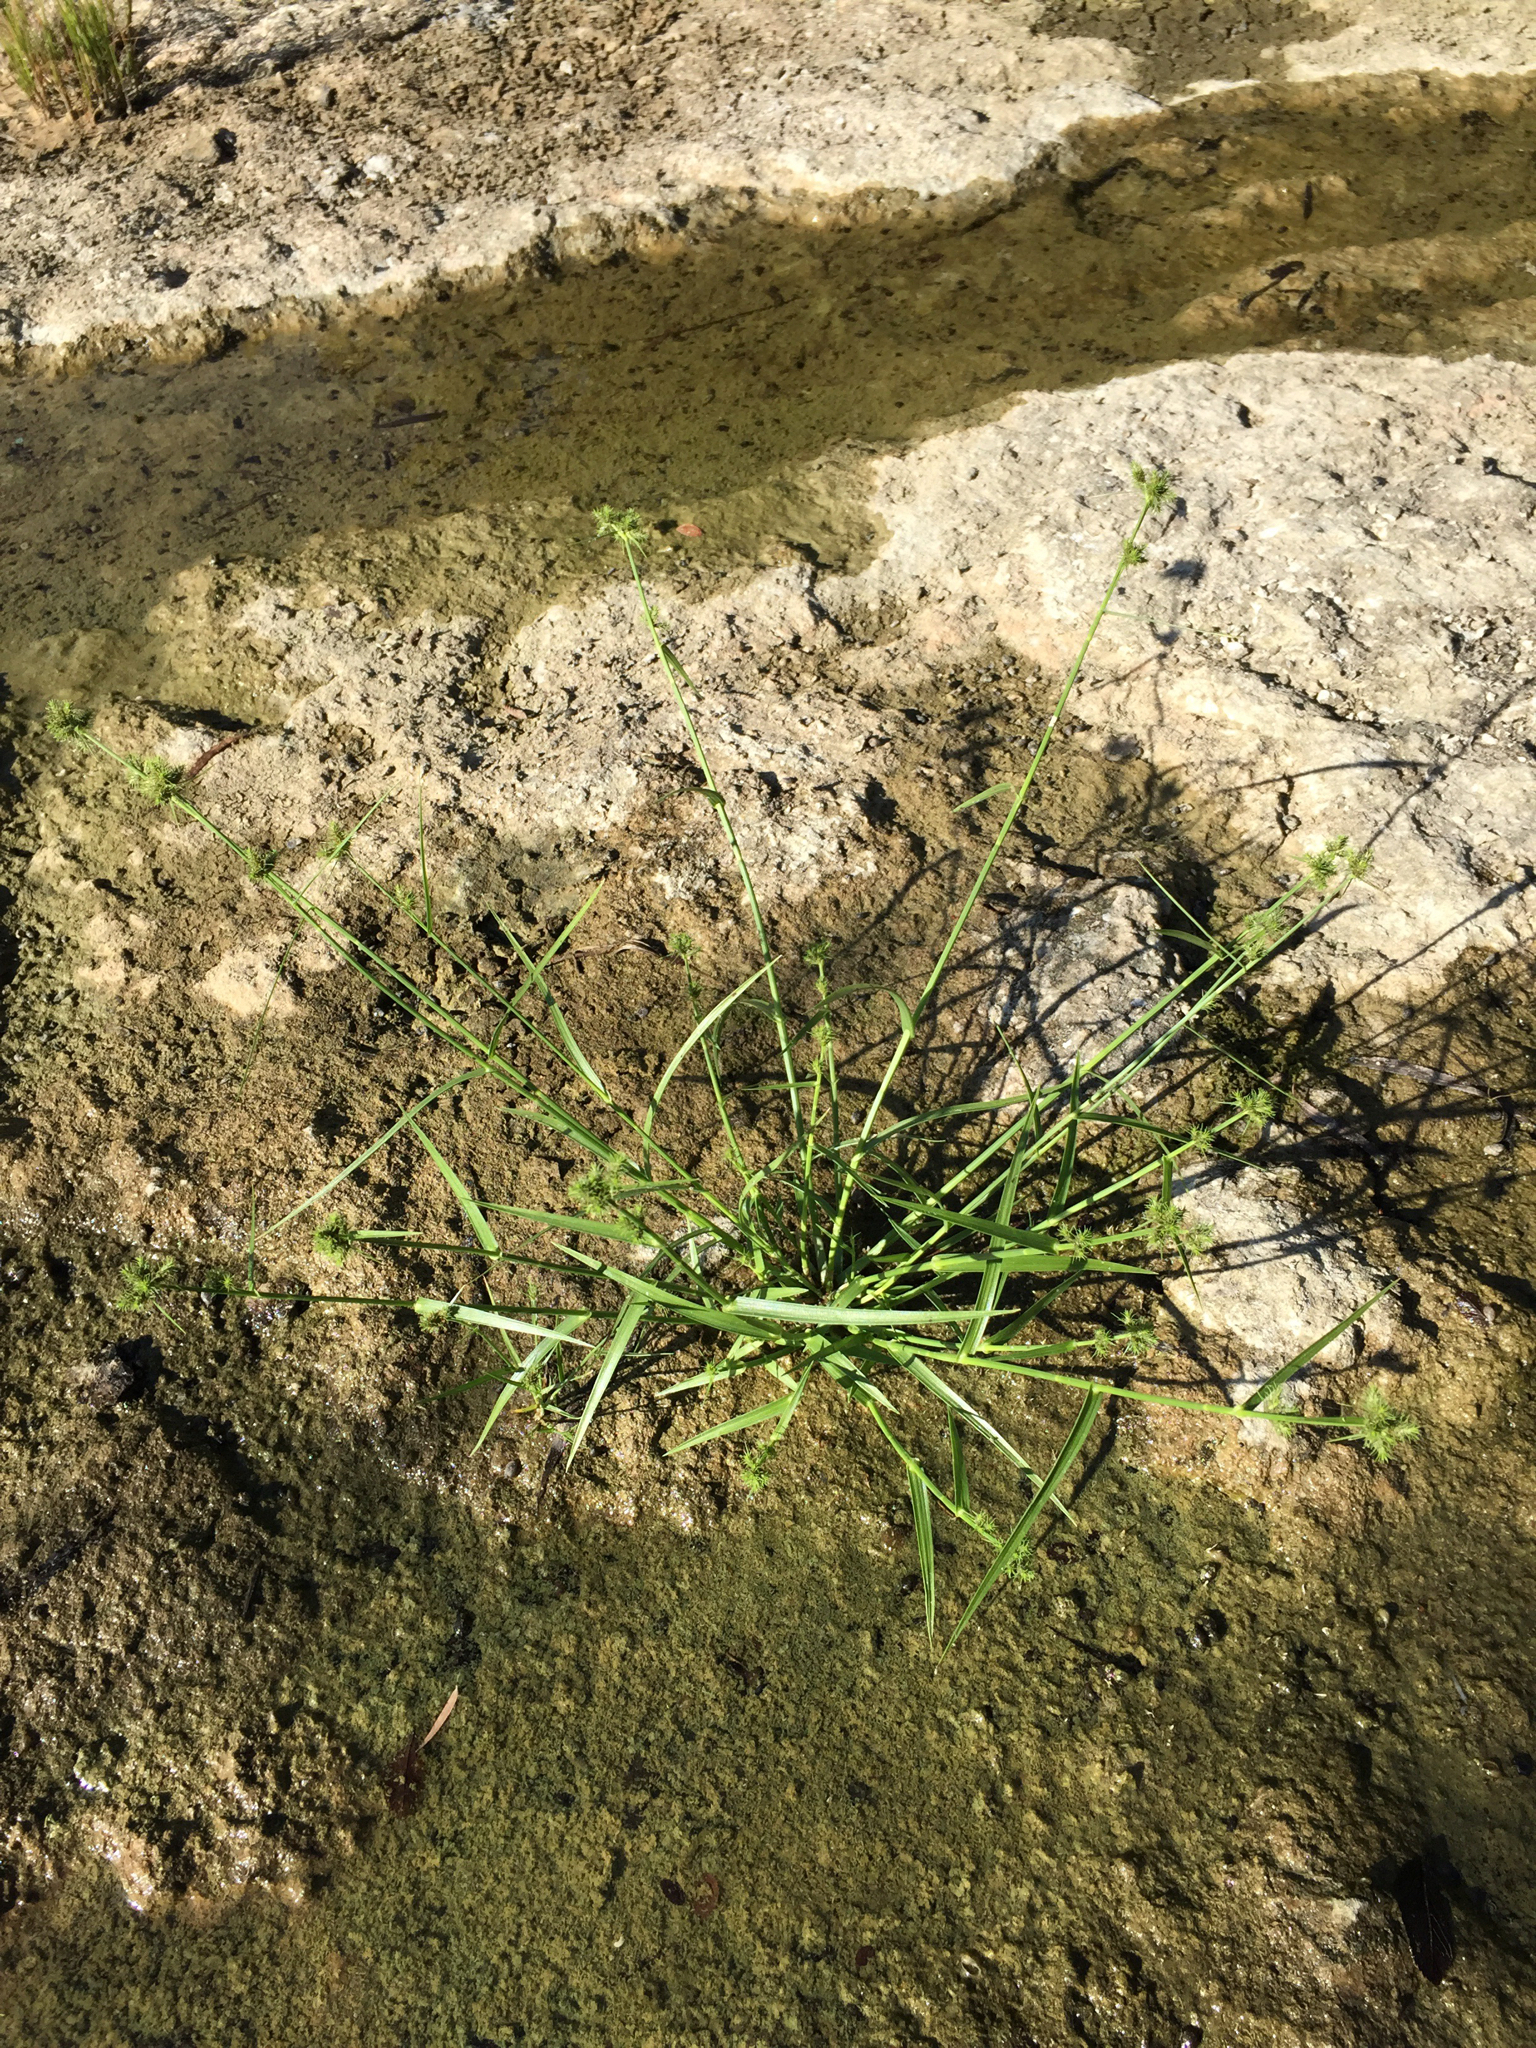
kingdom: Plantae
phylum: Tracheophyta
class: Liliopsida
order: Poales
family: Cyperaceae
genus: Fuirena
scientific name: Fuirena simplex
